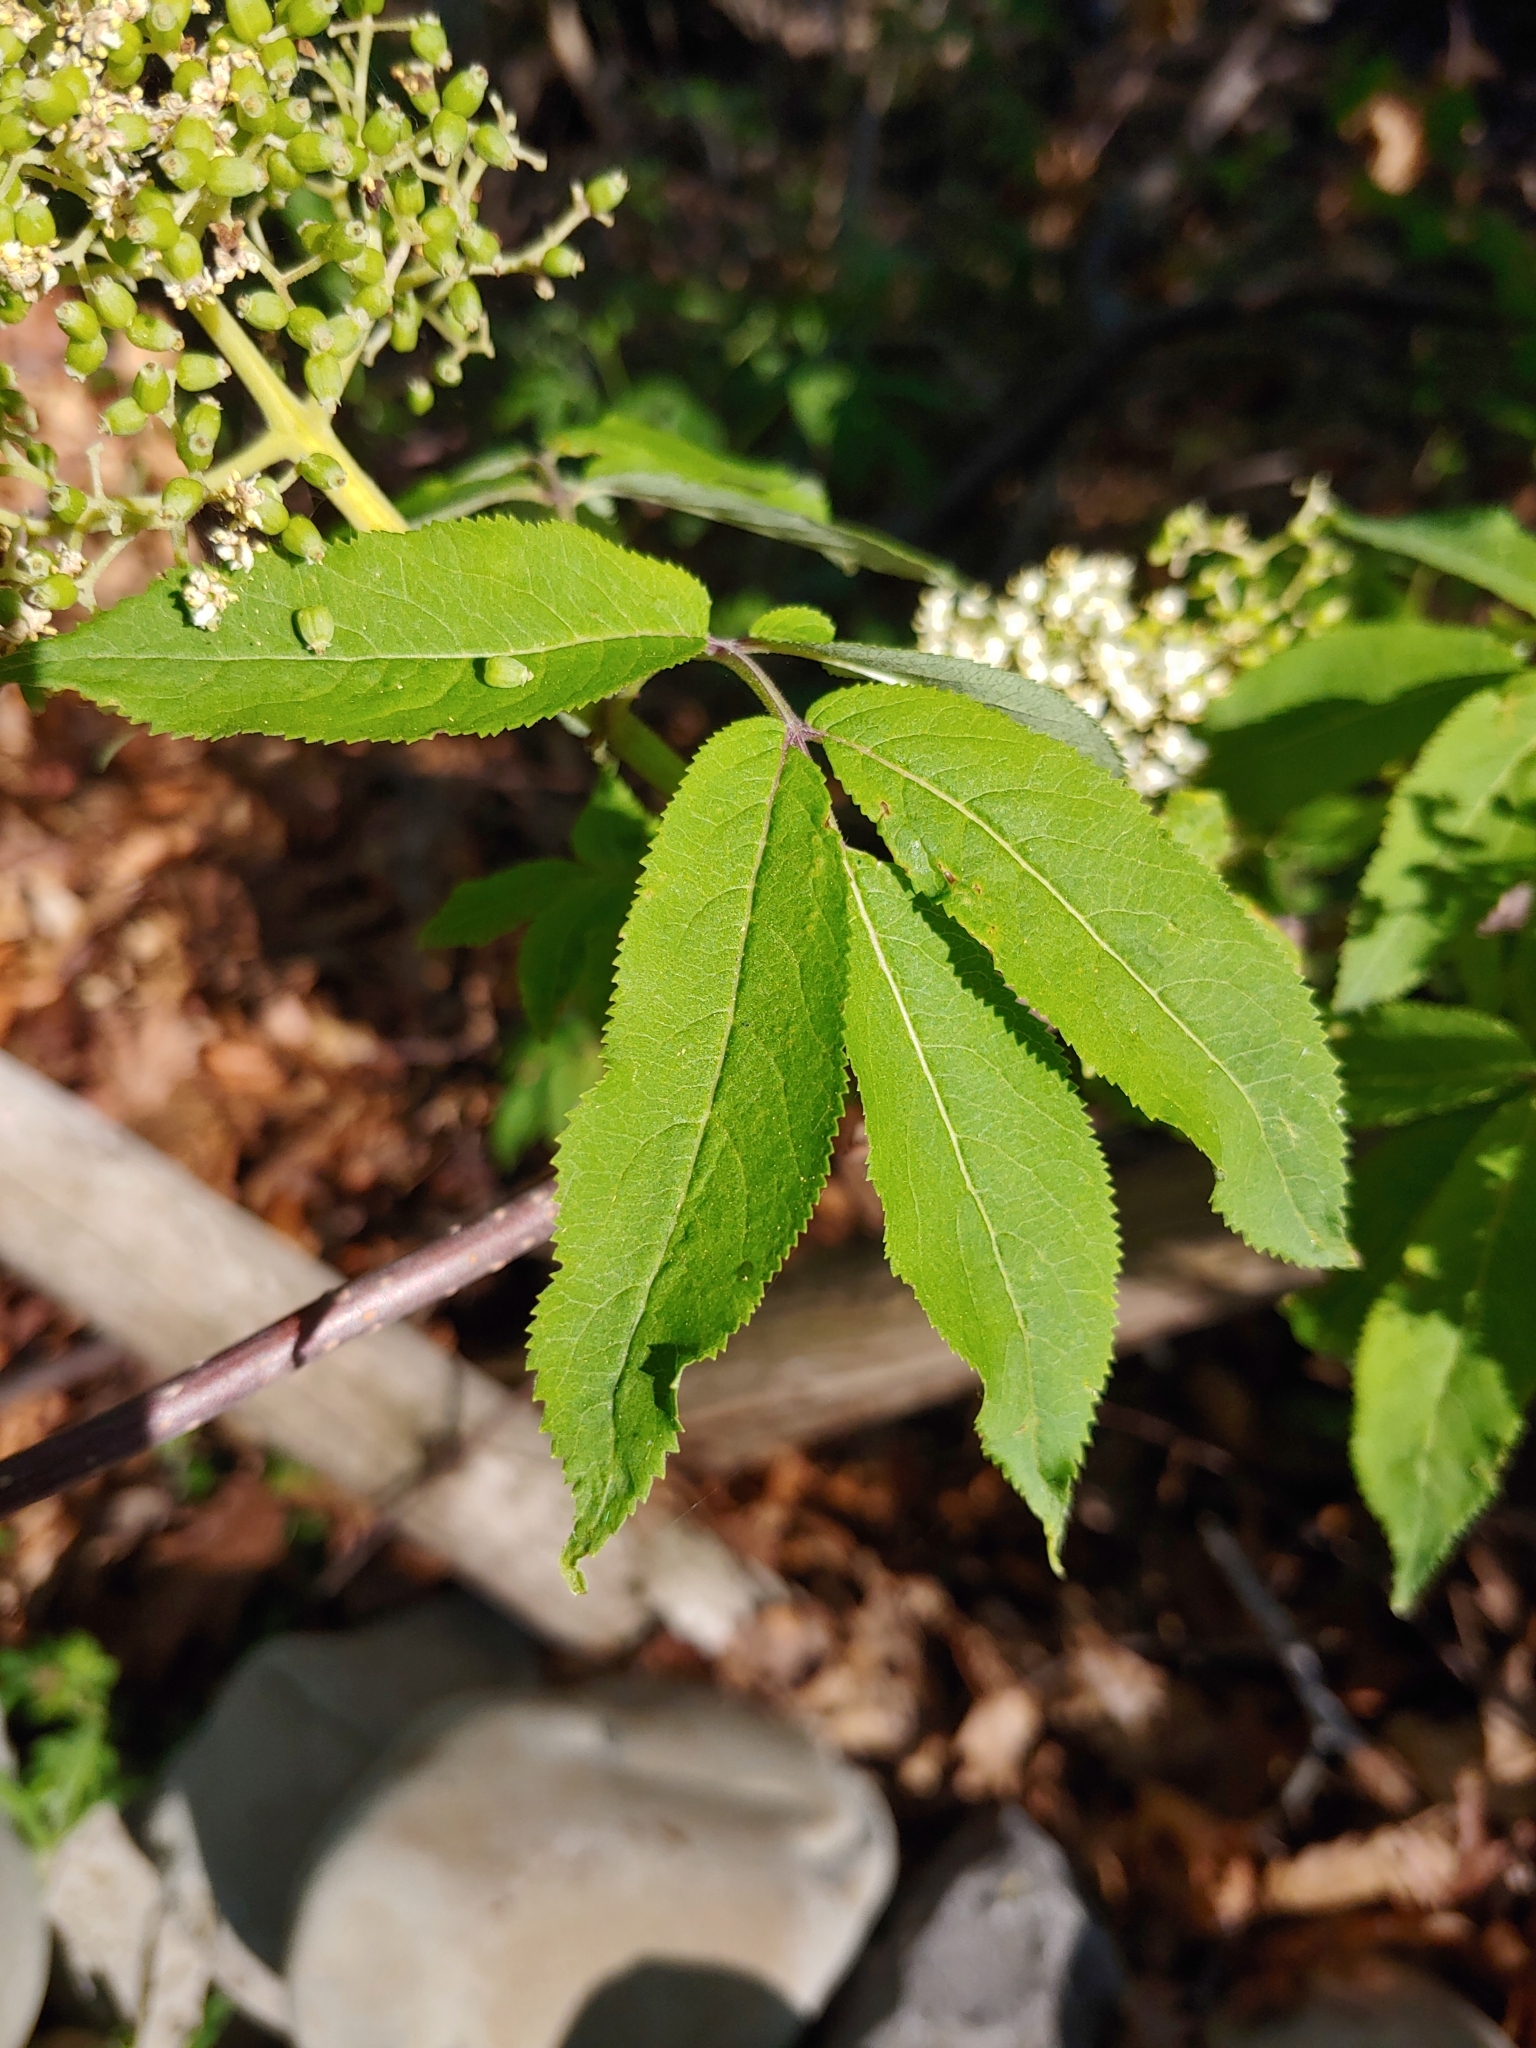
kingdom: Plantae
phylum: Tracheophyta
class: Magnoliopsida
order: Dipsacales
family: Viburnaceae
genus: Sambucus
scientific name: Sambucus racemosa
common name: Red-berried elder
